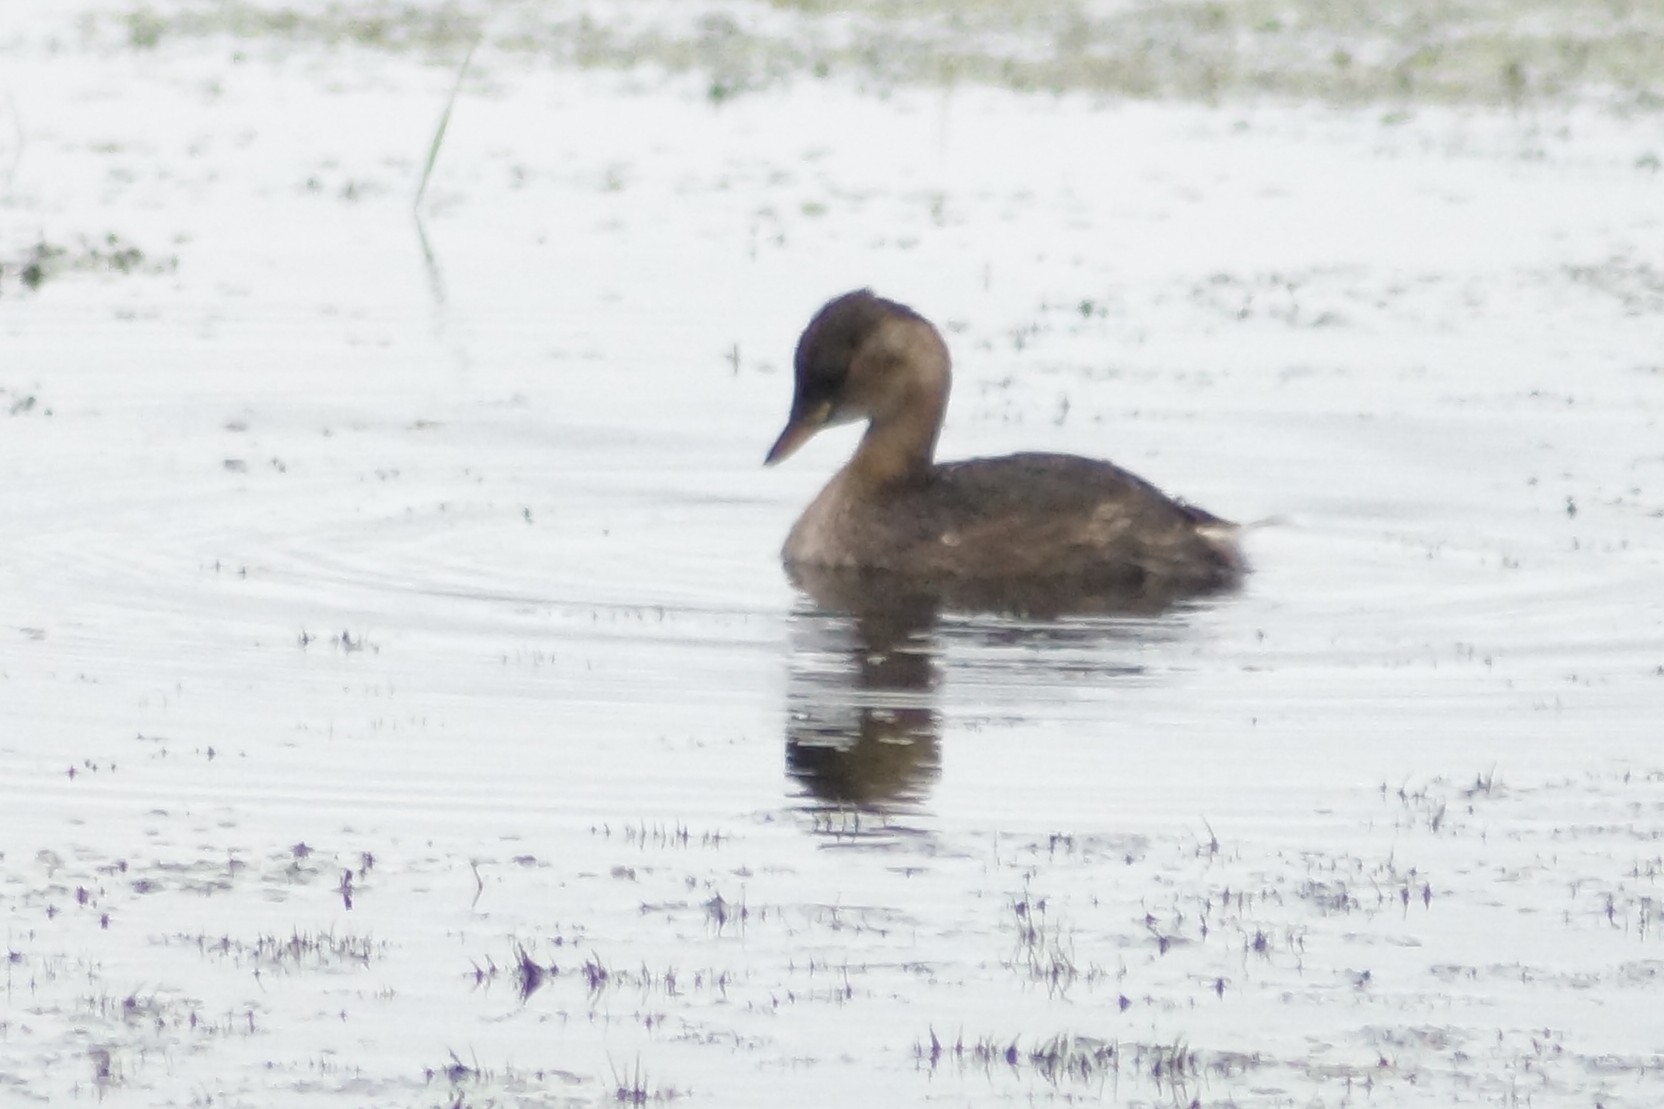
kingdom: Animalia
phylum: Chordata
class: Aves
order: Podicipediformes
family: Podicipedidae
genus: Tachybaptus
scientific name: Tachybaptus ruficollis
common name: Little grebe
